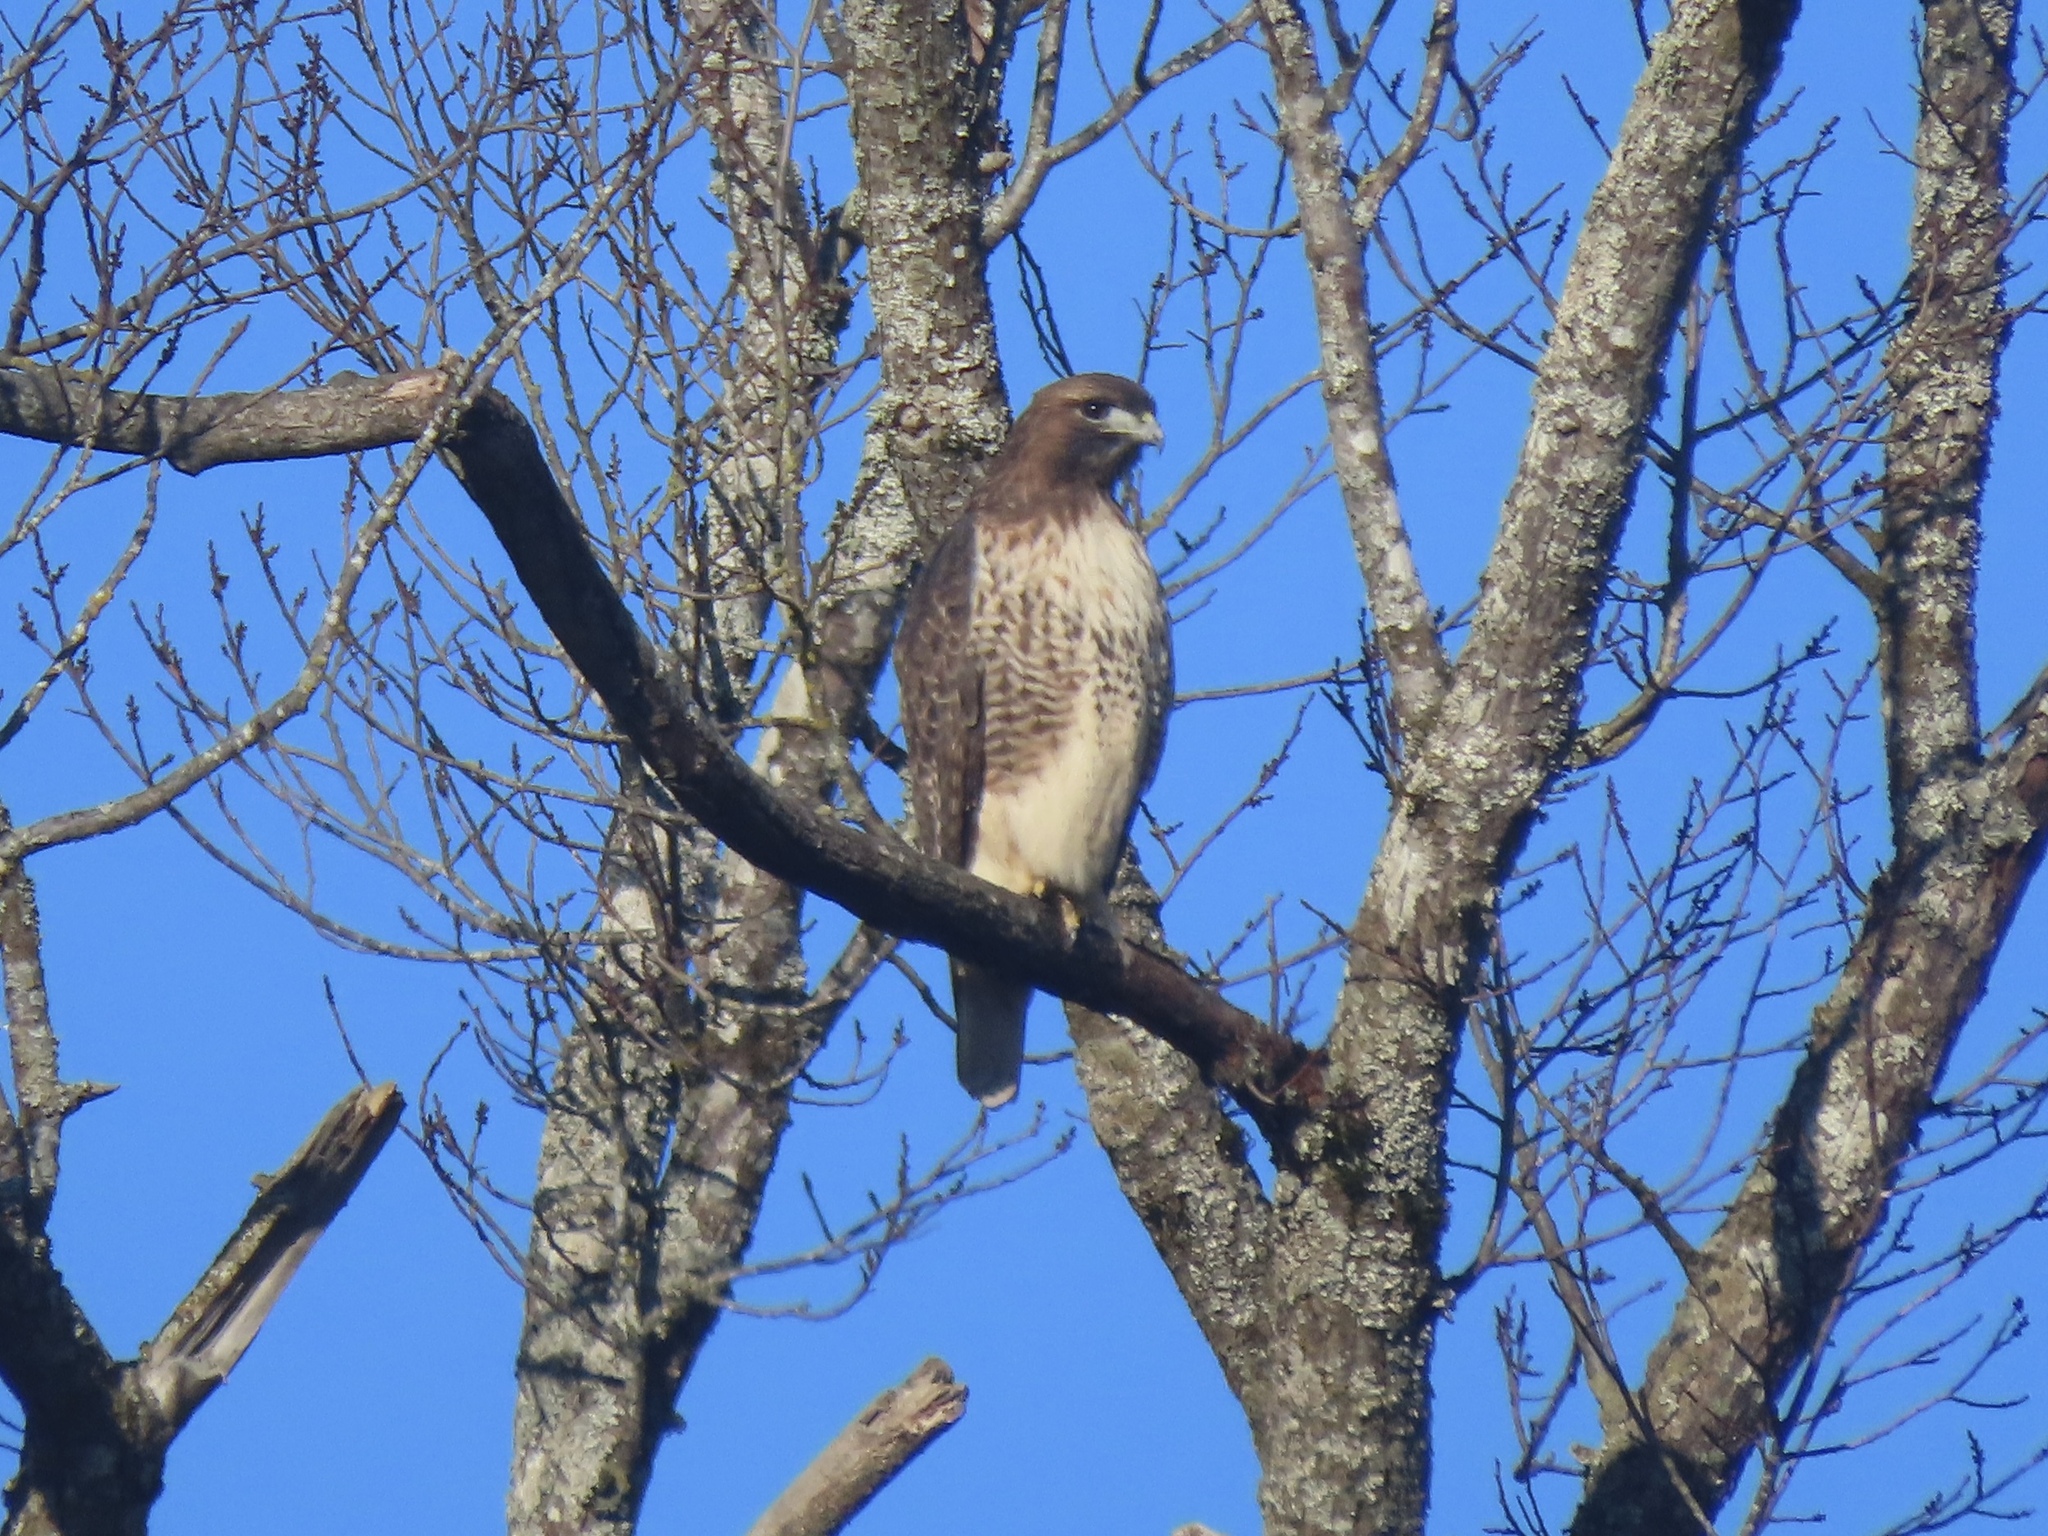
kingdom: Animalia
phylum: Chordata
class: Aves
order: Accipitriformes
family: Accipitridae
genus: Buteo
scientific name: Buteo jamaicensis
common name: Red-tailed hawk
